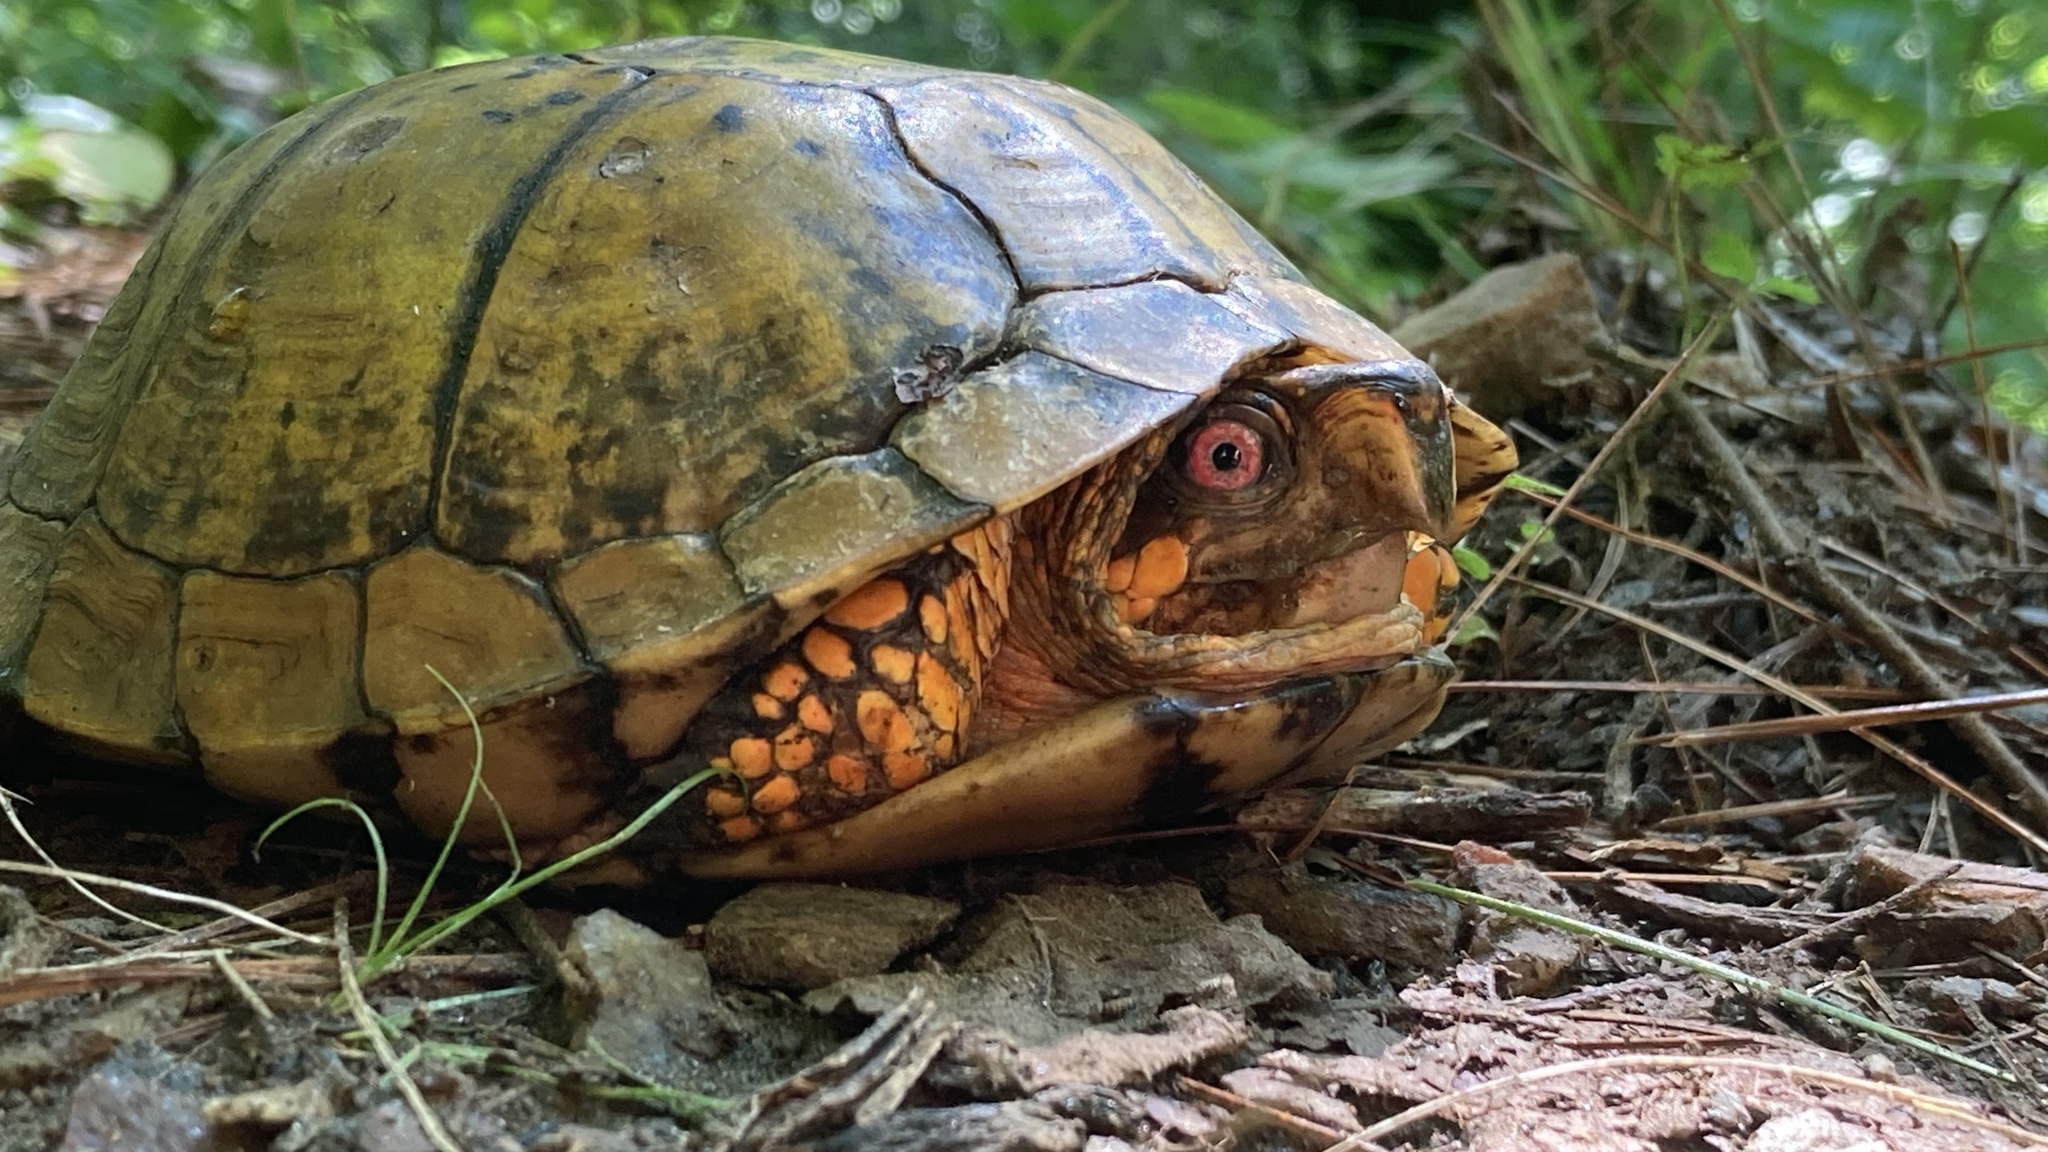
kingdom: Animalia
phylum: Chordata
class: Testudines
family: Emydidae
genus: Terrapene
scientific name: Terrapene carolina
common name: Common box turtle
